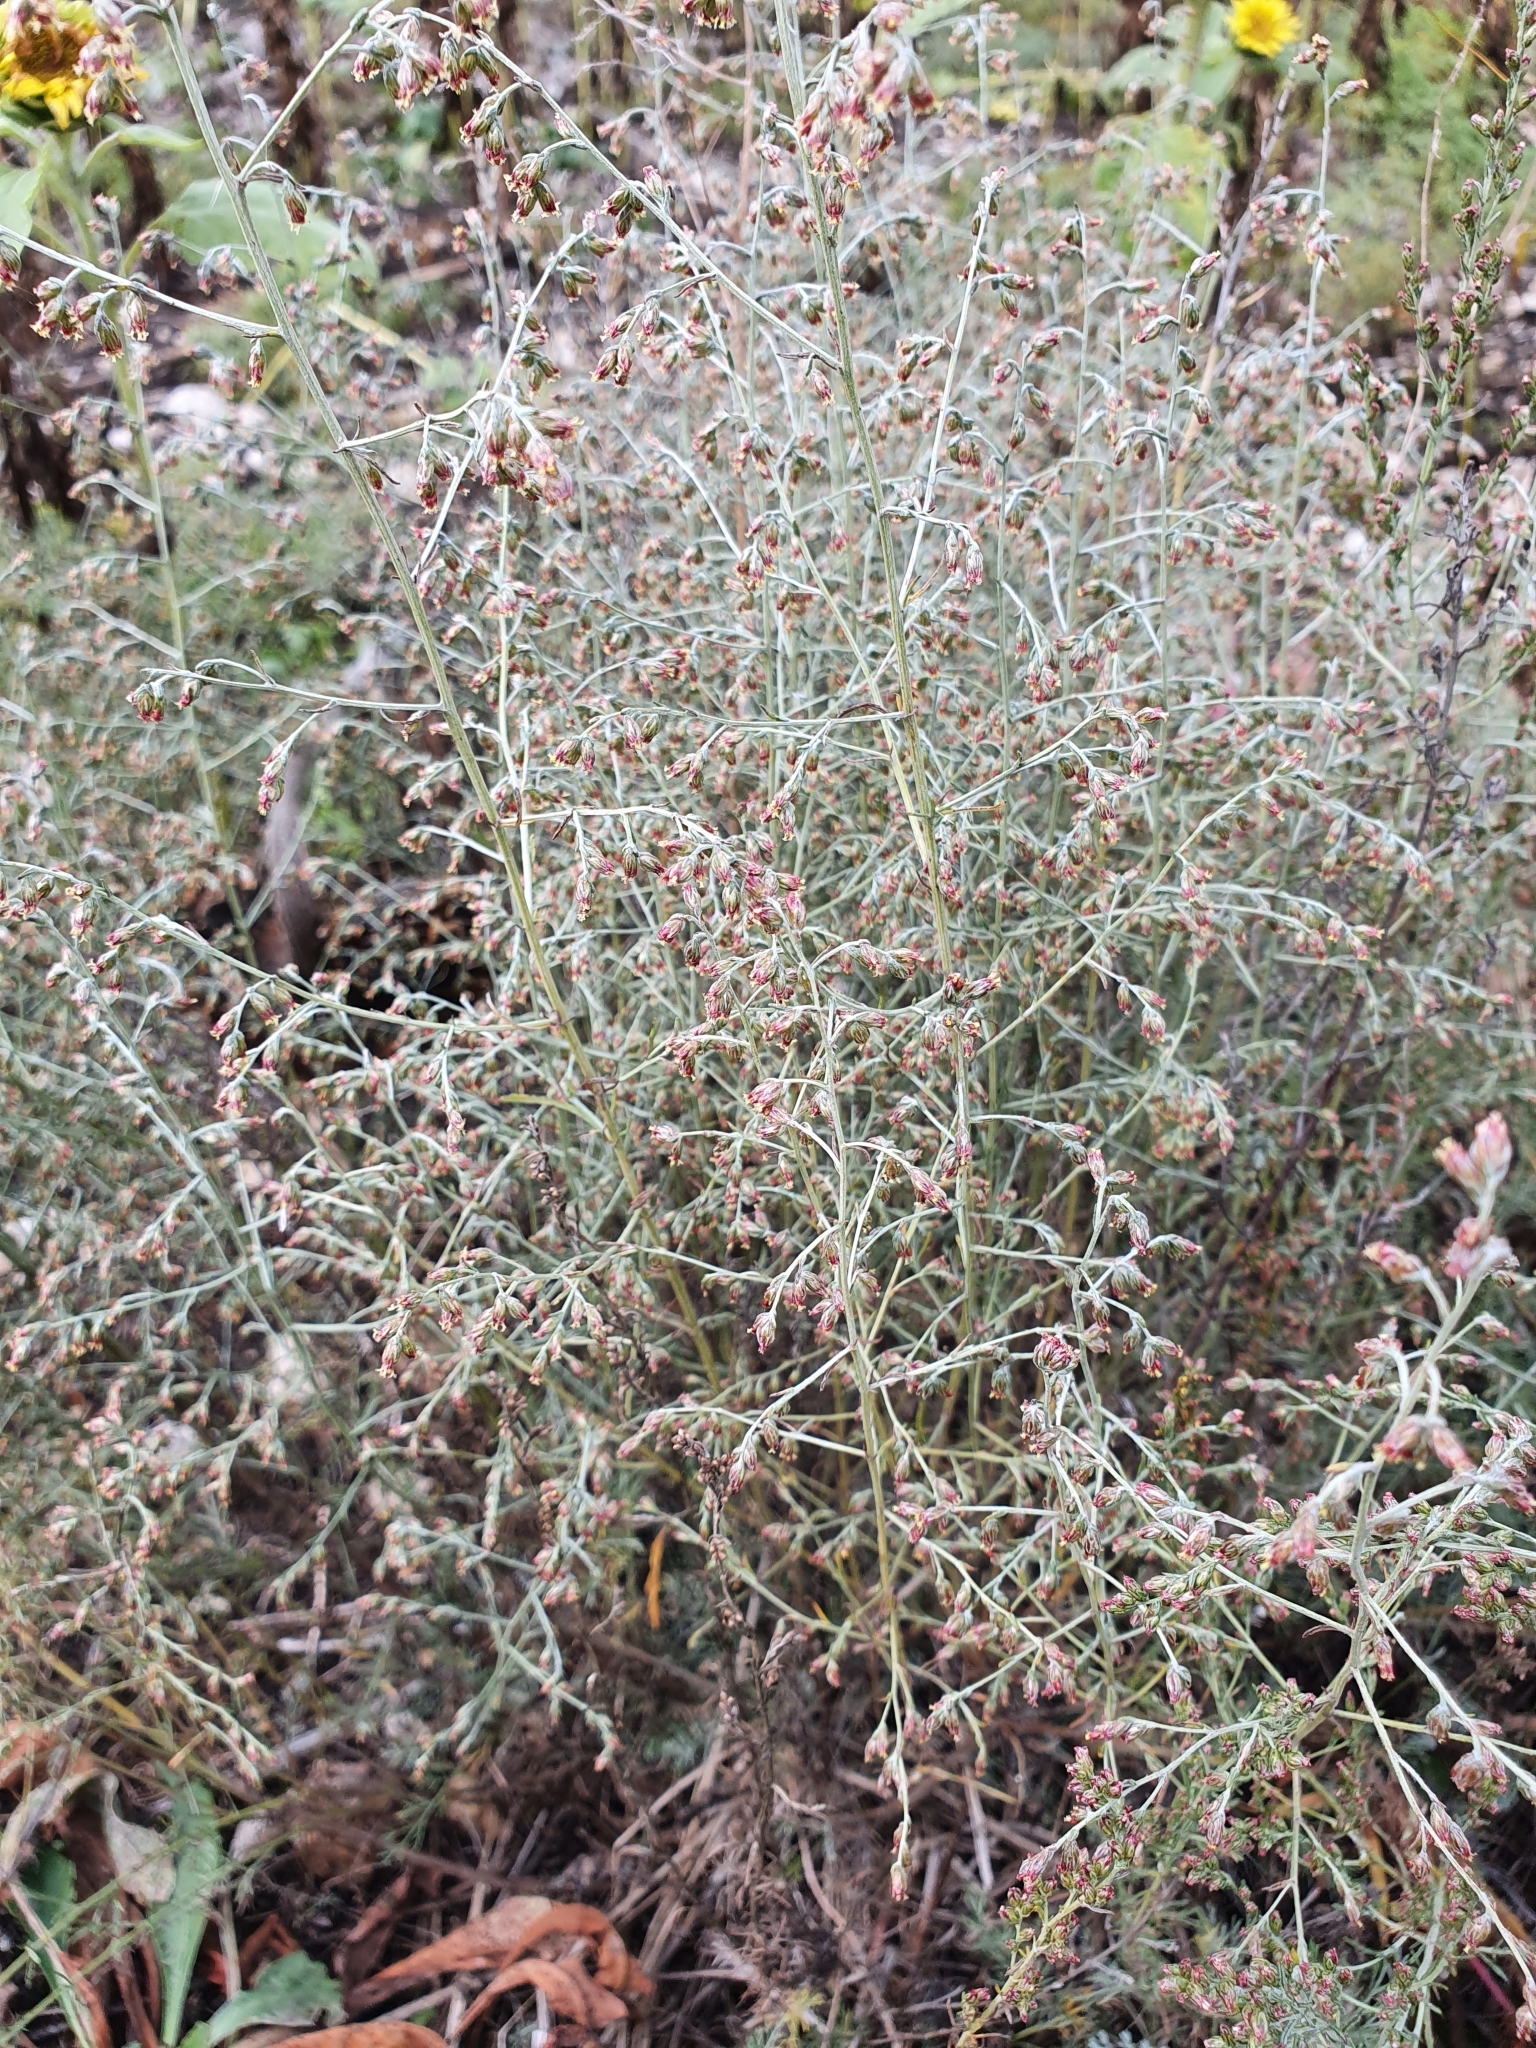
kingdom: Plantae
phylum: Tracheophyta
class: Magnoliopsida
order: Asterales
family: Asteraceae
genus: Artemisia
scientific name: Artemisia santonicum
